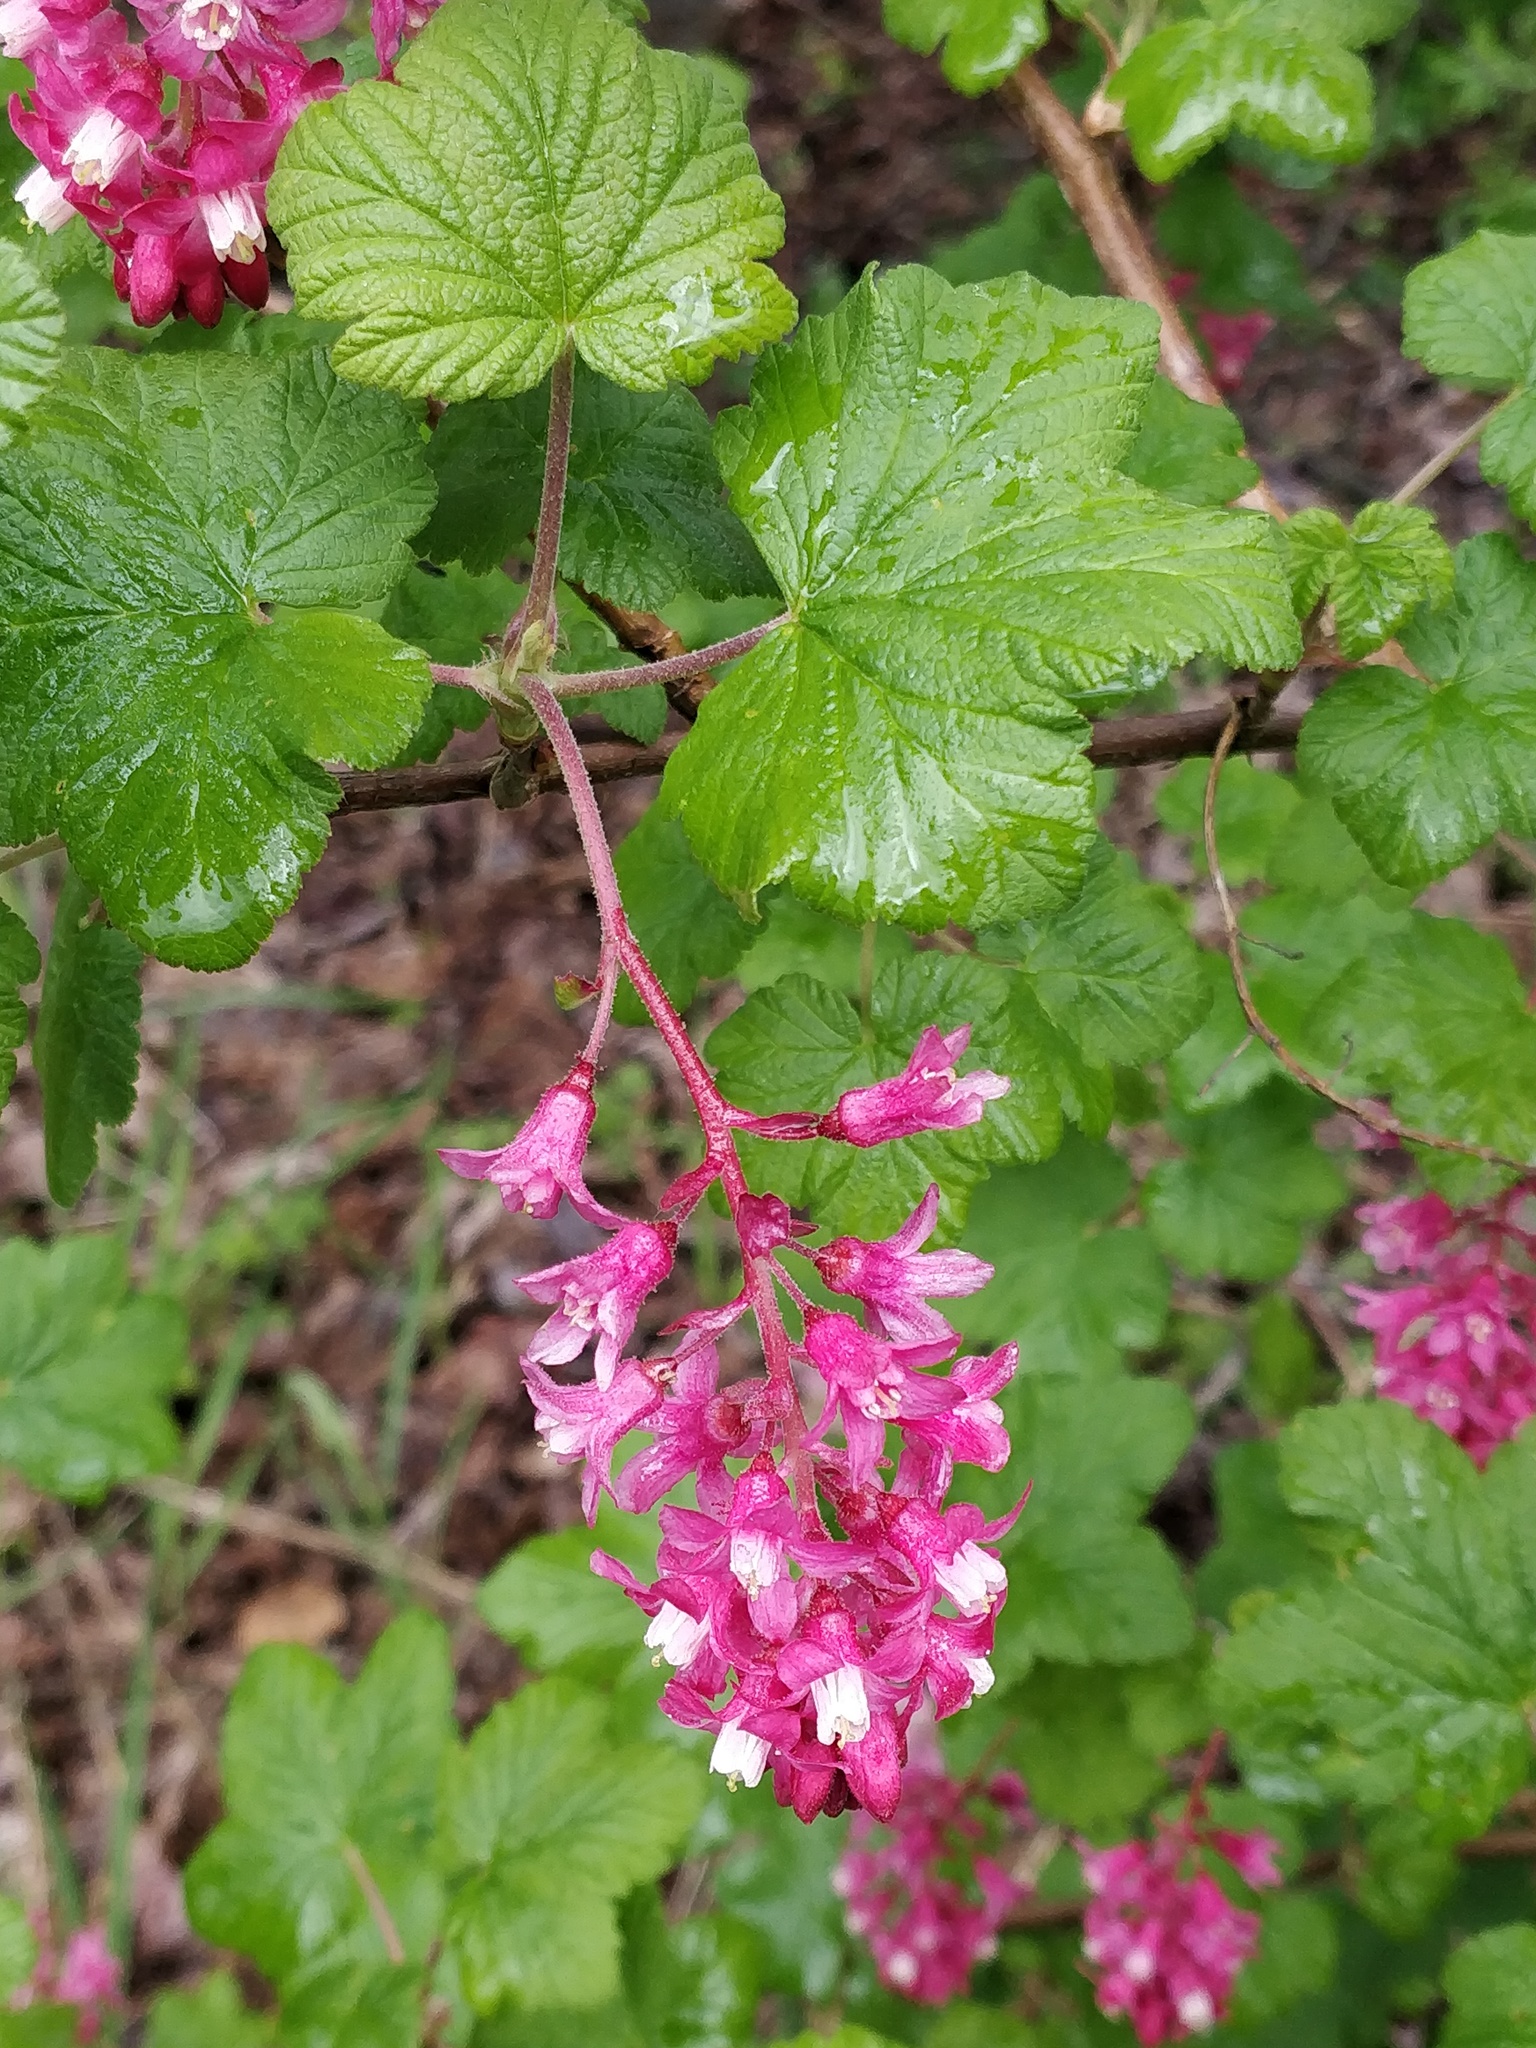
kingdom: Plantae
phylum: Tracheophyta
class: Magnoliopsida
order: Saxifragales
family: Grossulariaceae
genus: Ribes
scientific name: Ribes sanguineum
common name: Flowering currant
